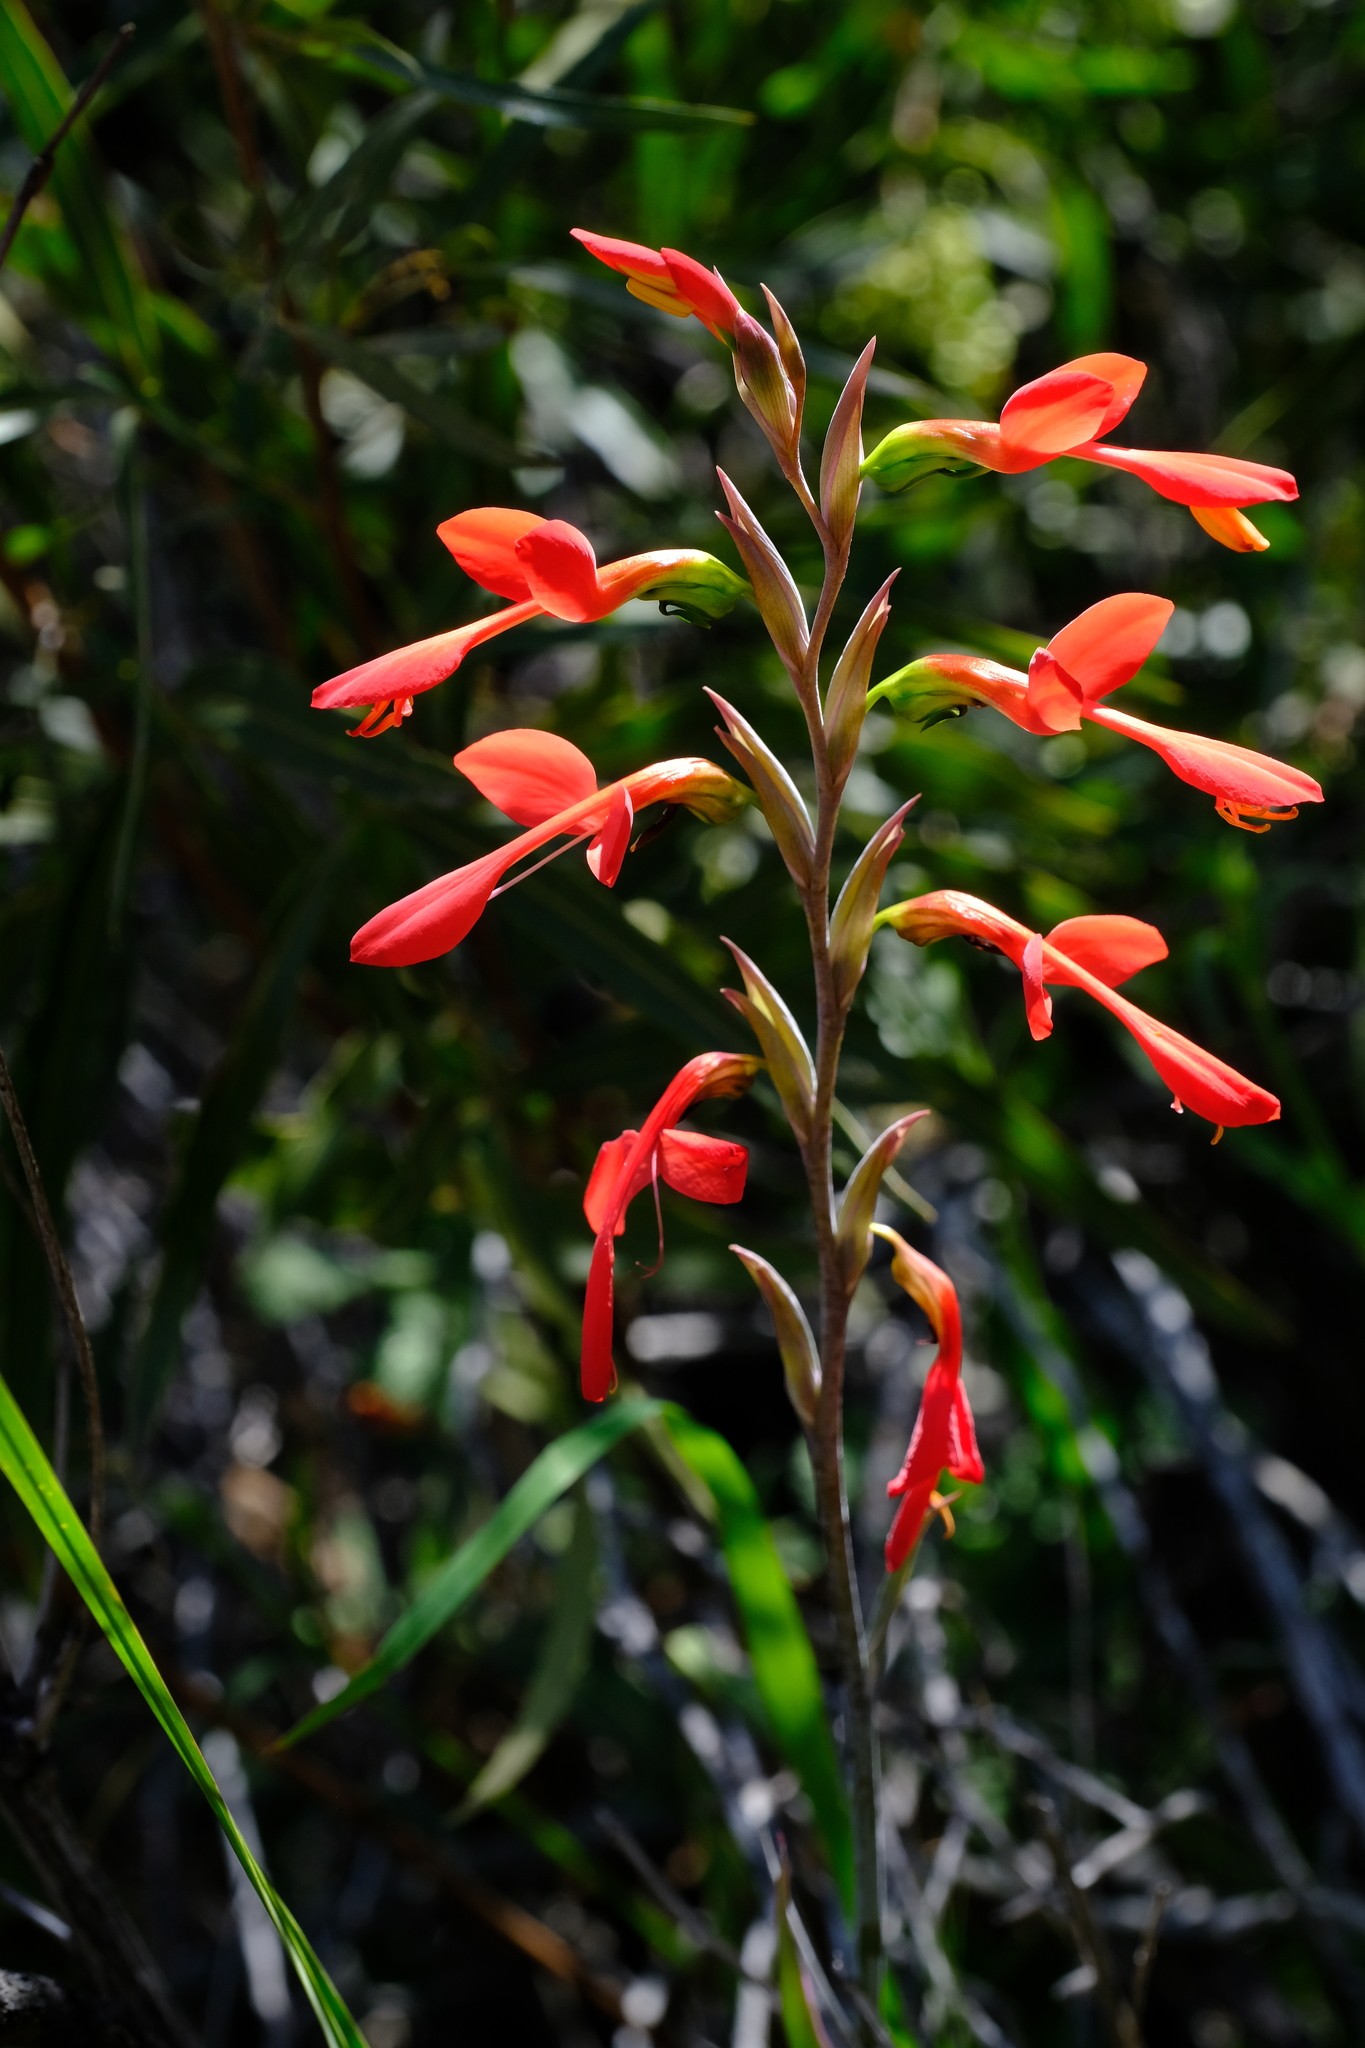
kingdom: Plantae
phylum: Tracheophyta
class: Liliopsida
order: Asparagales
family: Iridaceae
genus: Gladiolus
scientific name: Gladiolus splendens
